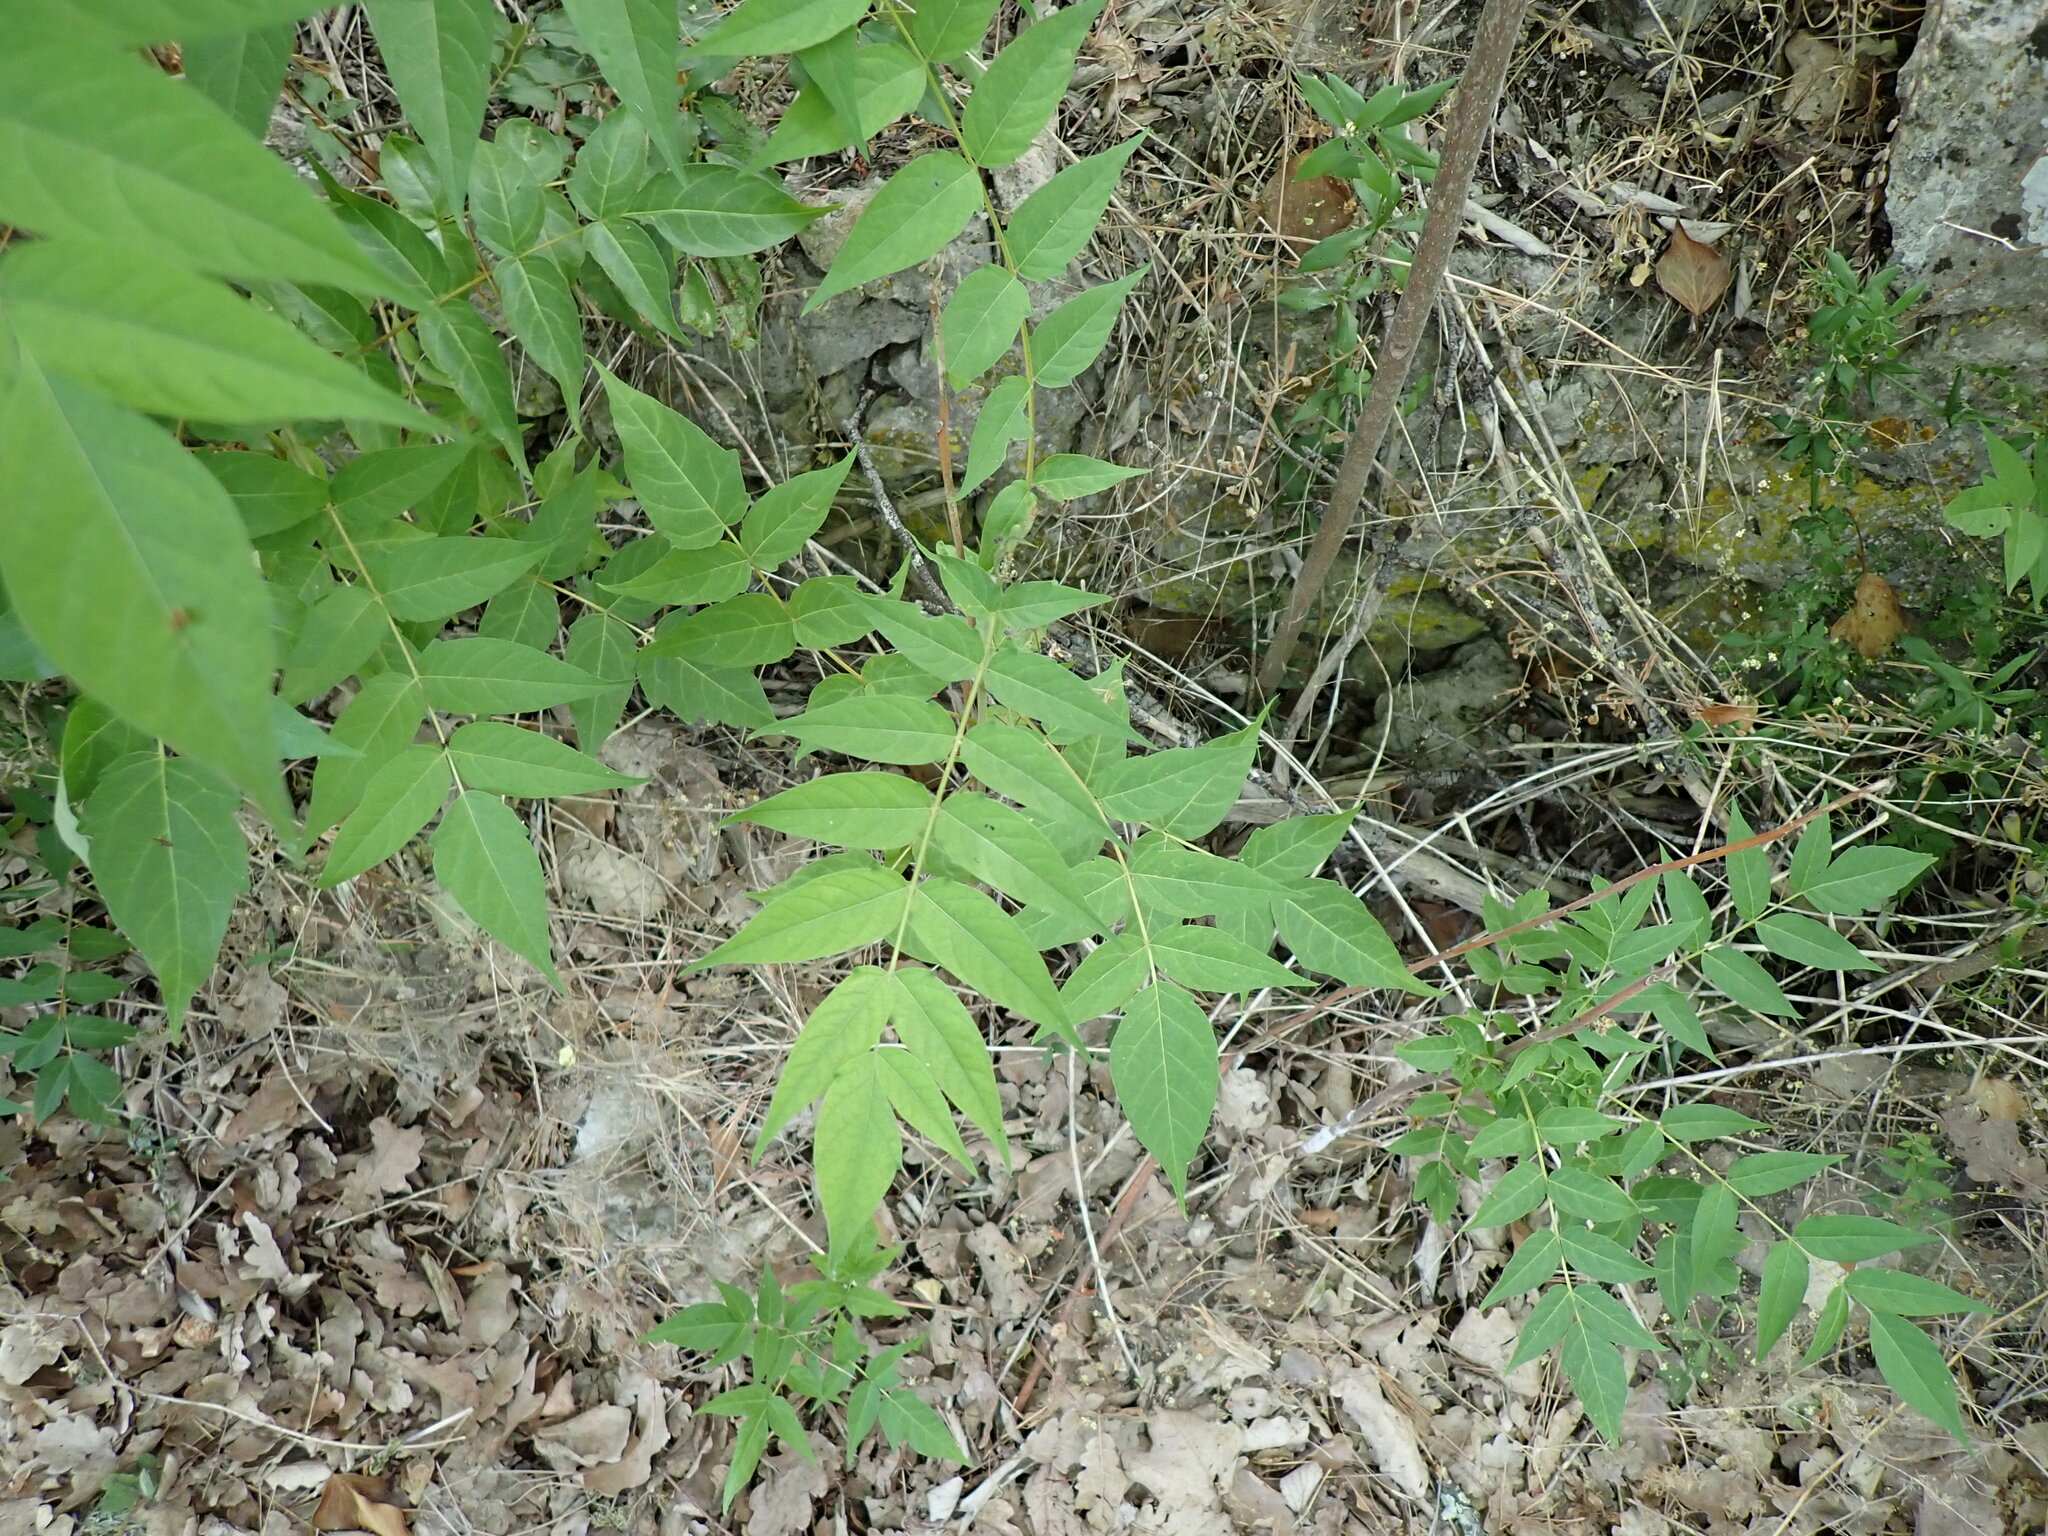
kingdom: Plantae
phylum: Tracheophyta
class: Magnoliopsida
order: Sapindales
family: Simaroubaceae
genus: Ailanthus
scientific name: Ailanthus altissima
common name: Tree-of-heaven
